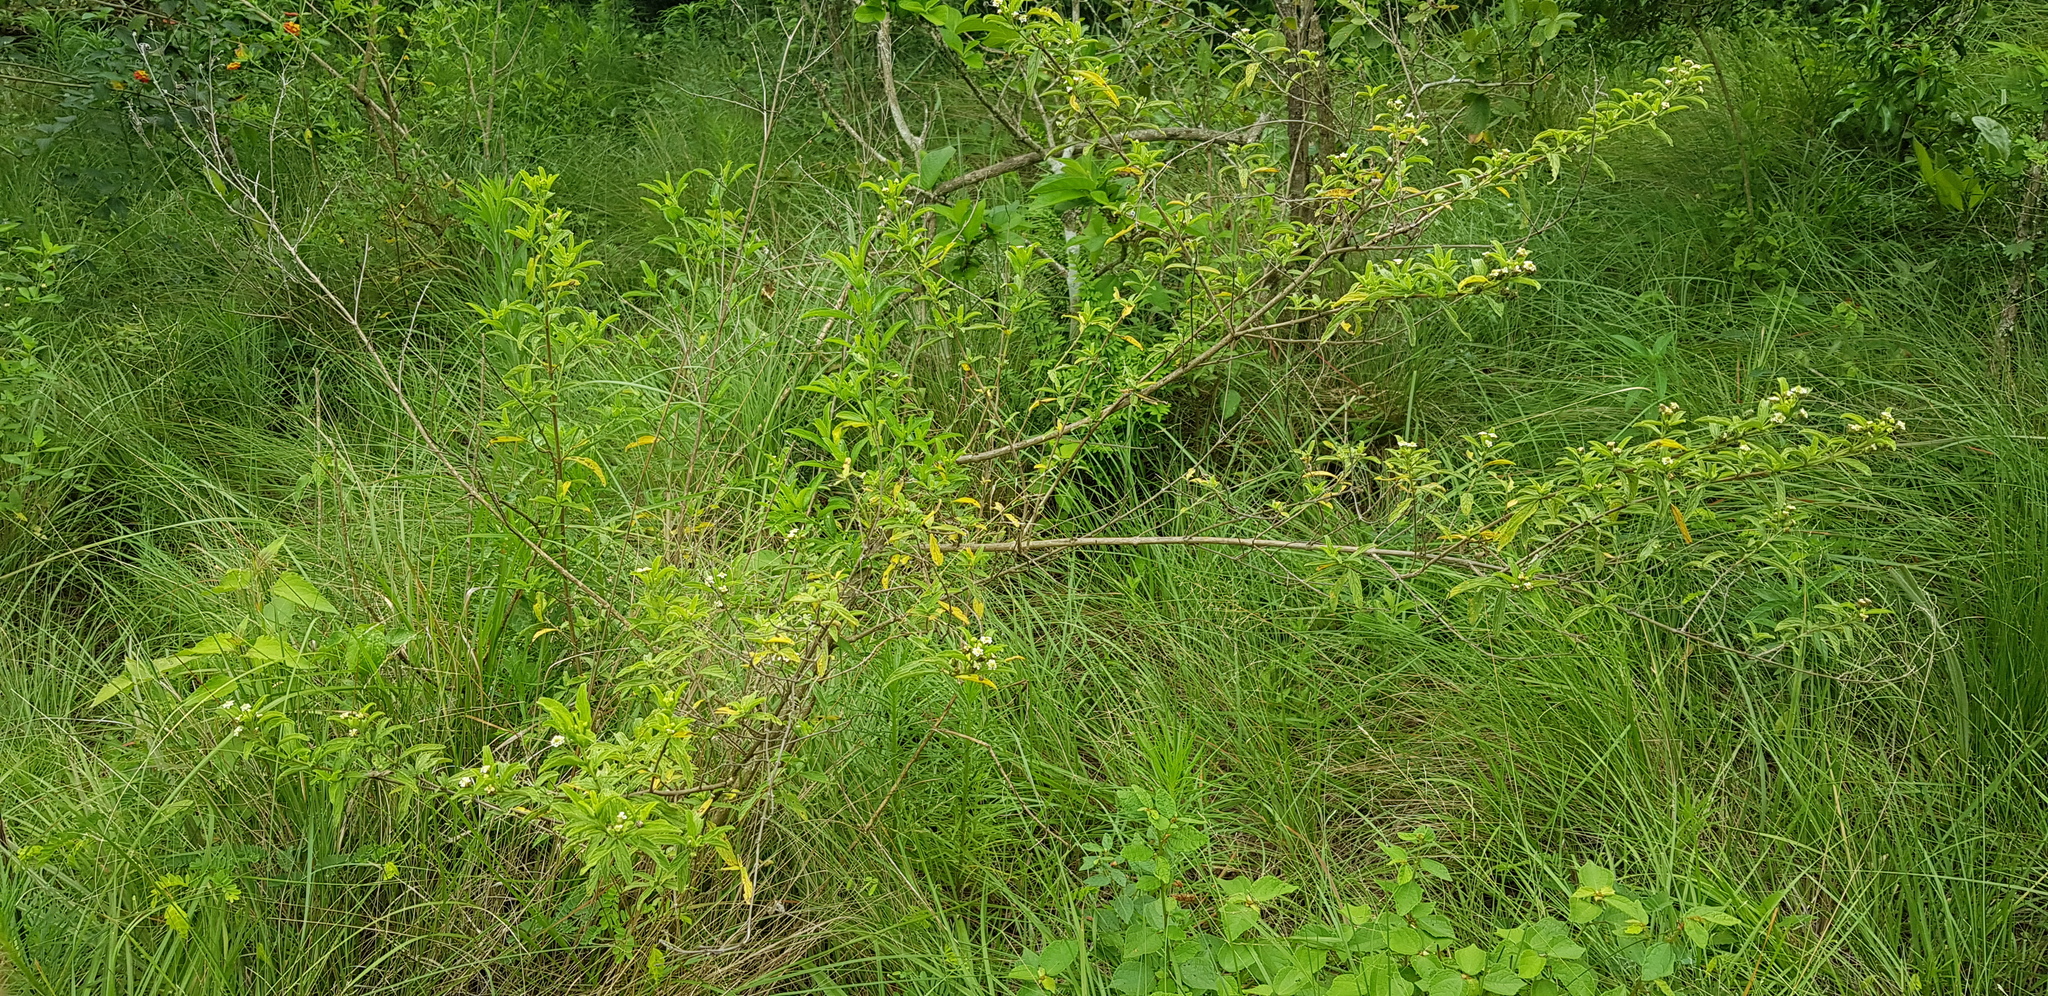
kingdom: Plantae
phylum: Tracheophyta
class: Magnoliopsida
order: Lamiales
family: Verbenaceae
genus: Lippia
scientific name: Lippia javanica
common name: Lemonbush
